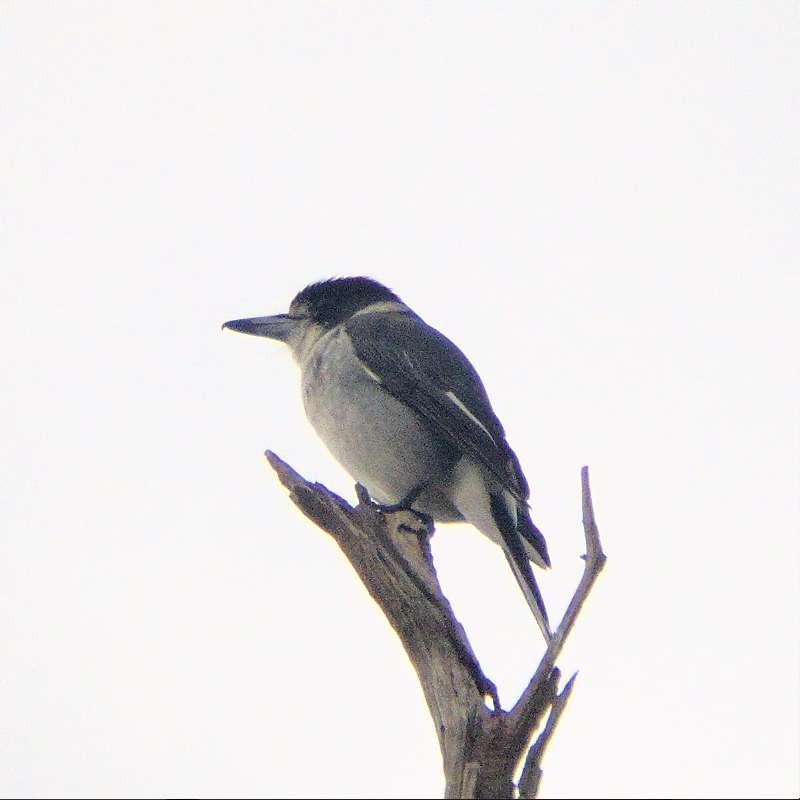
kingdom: Animalia
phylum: Chordata
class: Aves
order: Passeriformes
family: Cracticidae
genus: Cracticus
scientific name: Cracticus torquatus
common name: Grey butcherbird
